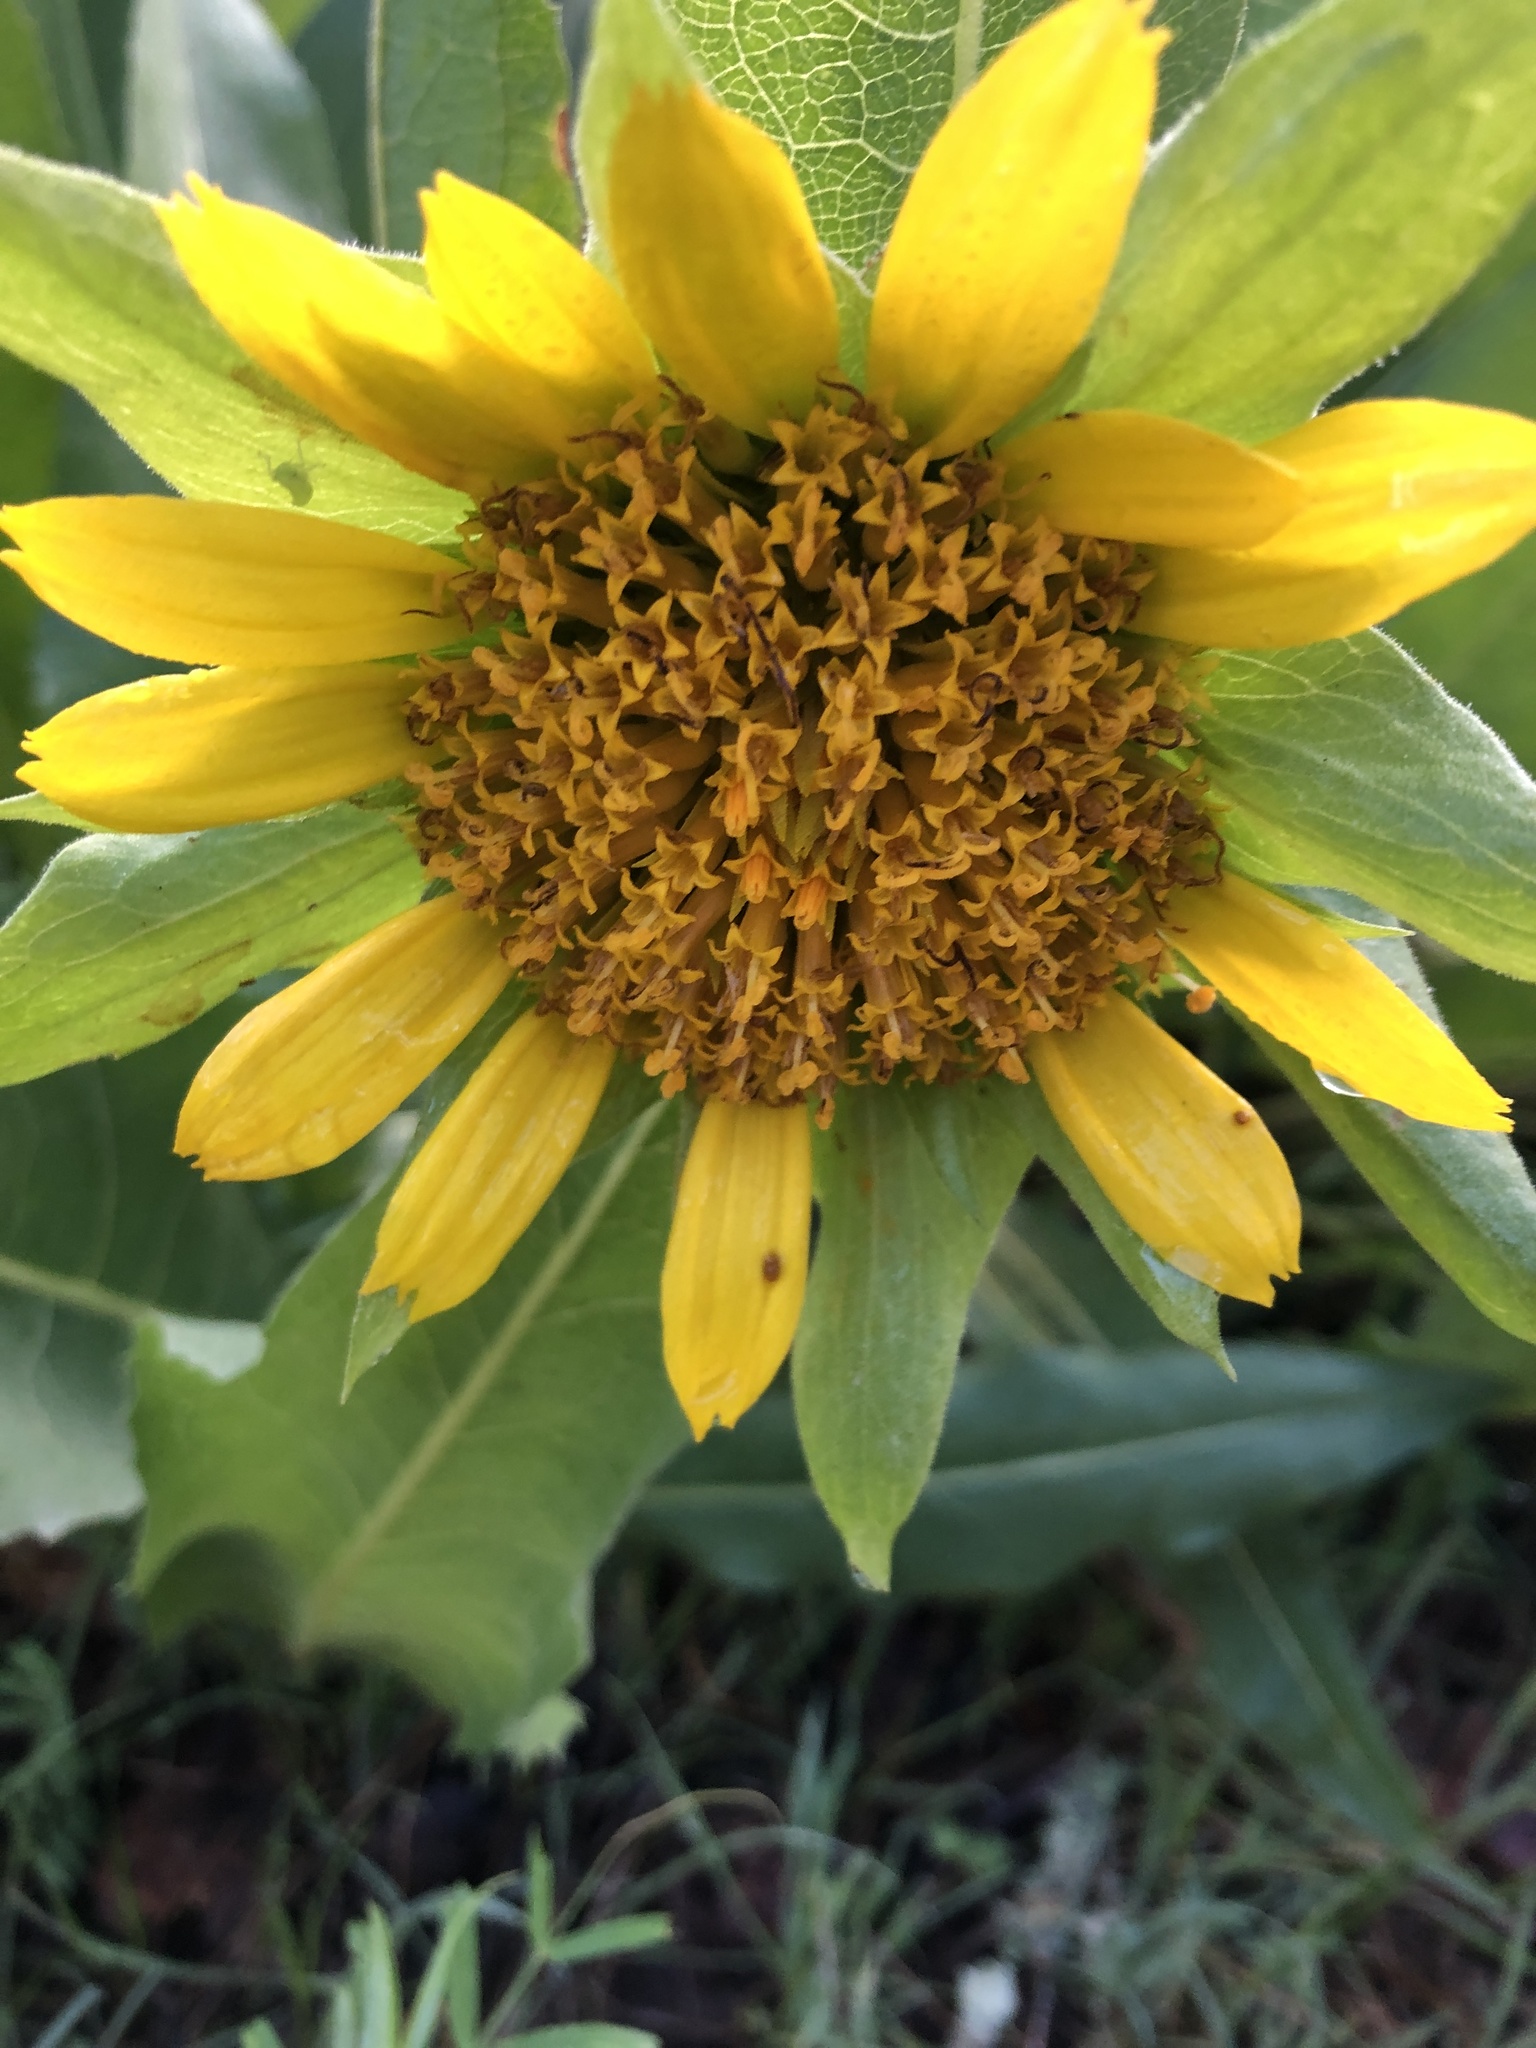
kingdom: Plantae
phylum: Tracheophyta
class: Magnoliopsida
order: Asterales
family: Asteraceae
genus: Wyethia
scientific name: Wyethia glabra
